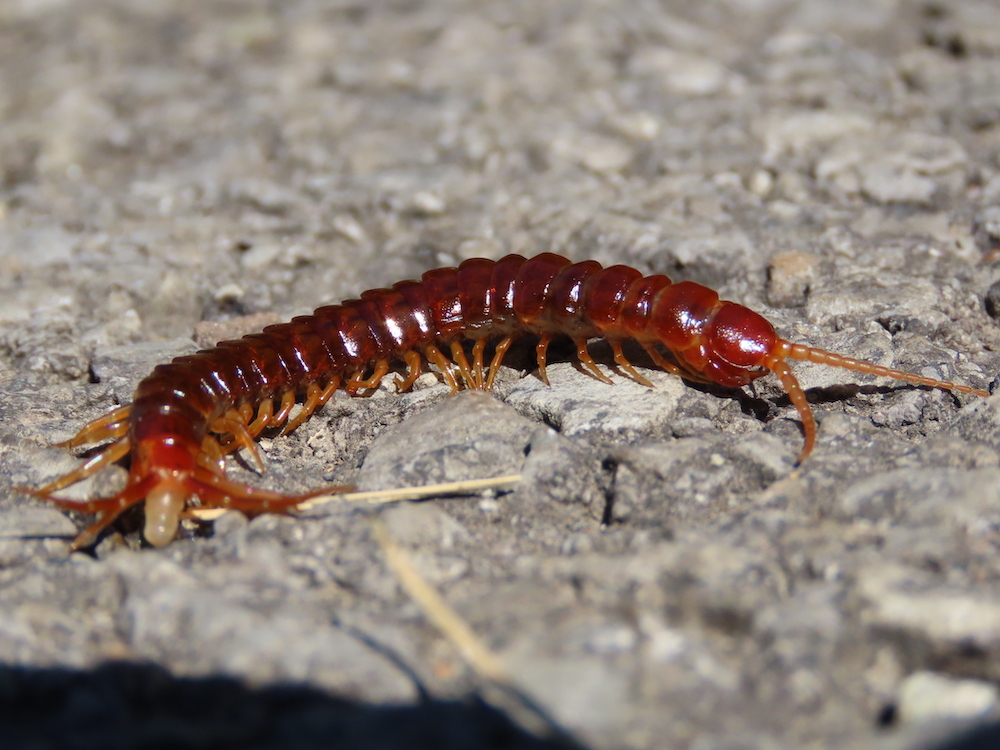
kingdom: Animalia
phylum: Arthropoda
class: Chilopoda
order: Scolopendromorpha
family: Scolopocryptopidae
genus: Scolopocryptops
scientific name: Scolopocryptops sexspinosus
